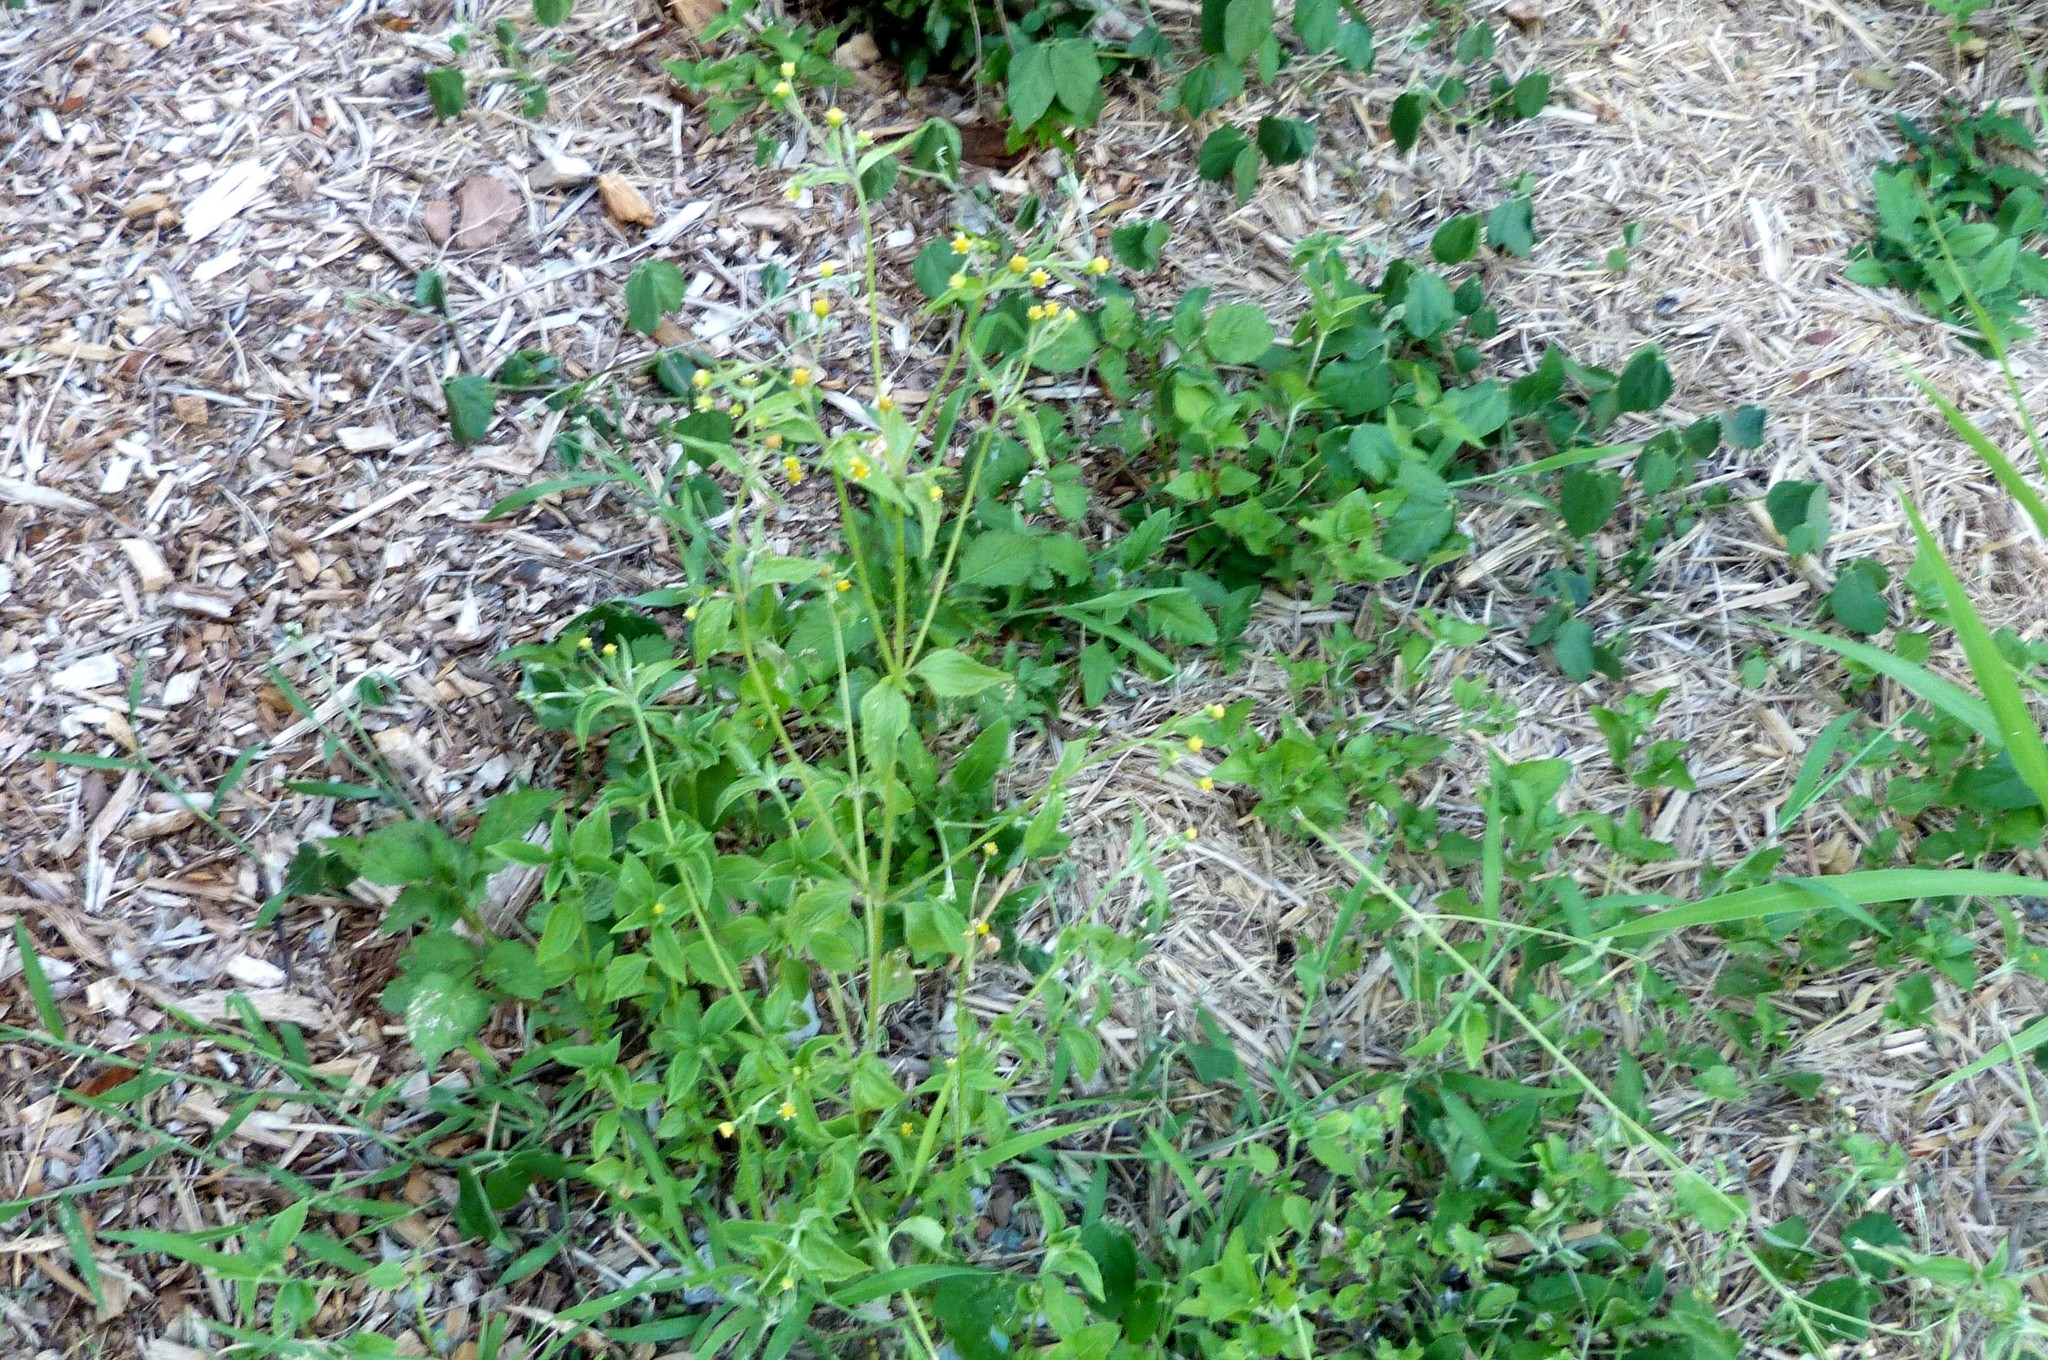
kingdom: Plantae
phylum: Tracheophyta
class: Magnoliopsida
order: Asterales
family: Asteraceae
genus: Galinsoga
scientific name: Galinsoga parviflora
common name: Gallant soldier
